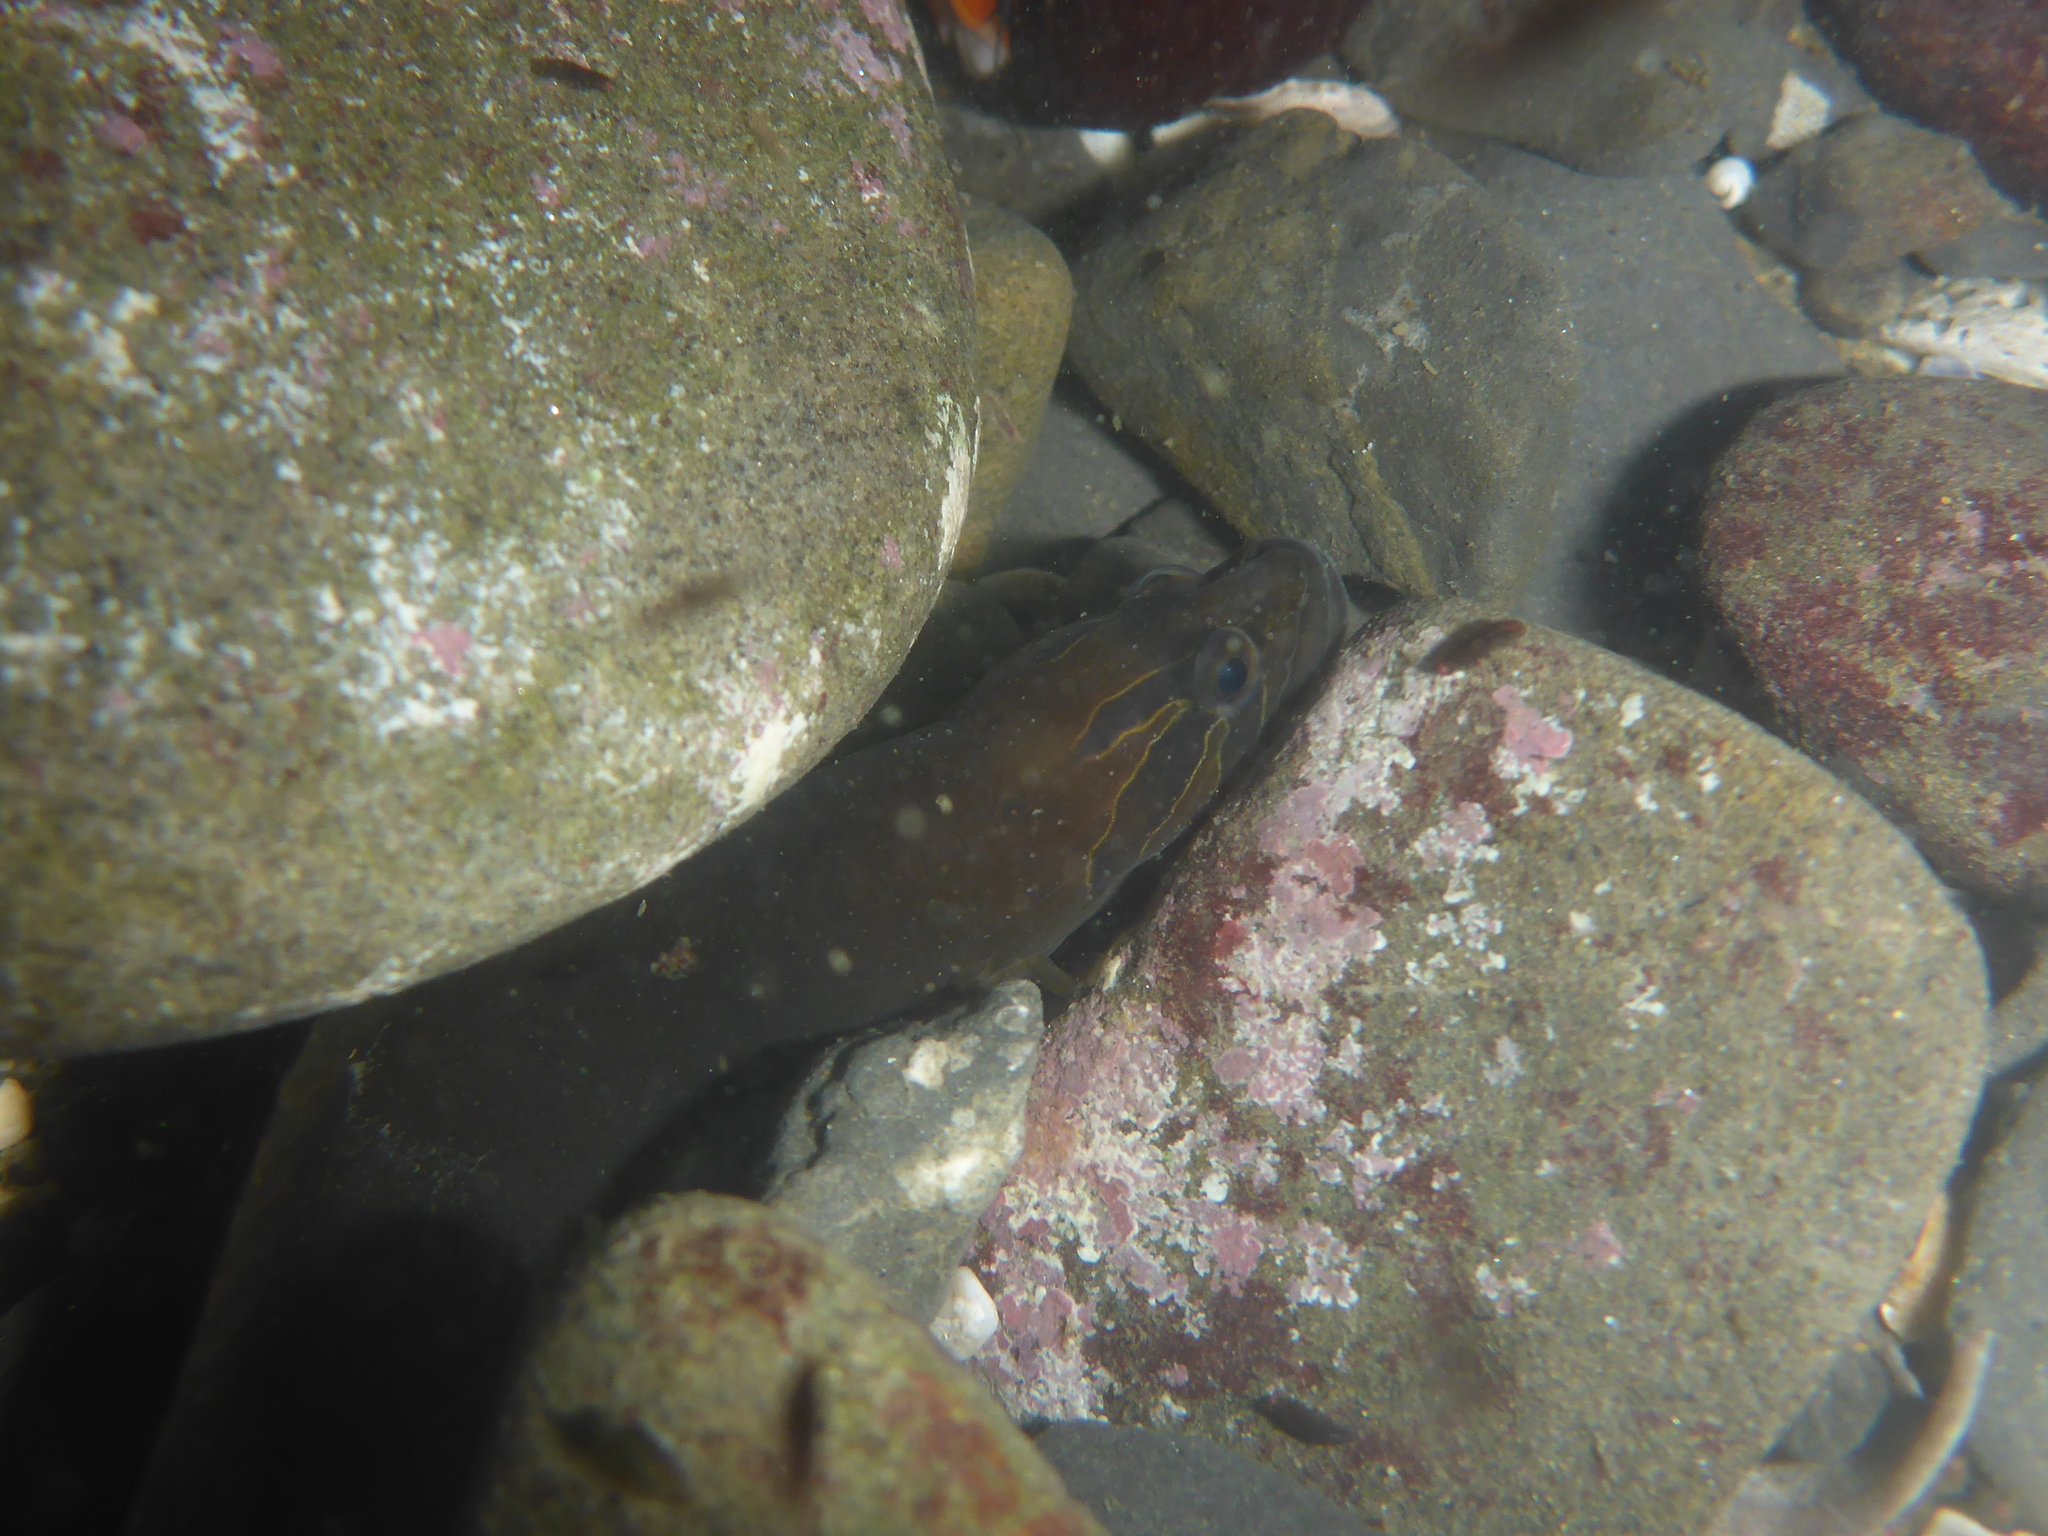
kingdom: Animalia
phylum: Chordata
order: Perciformes
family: Stichaeidae
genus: Xiphister
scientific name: Xiphister atropurpureus
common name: Black prickleback
